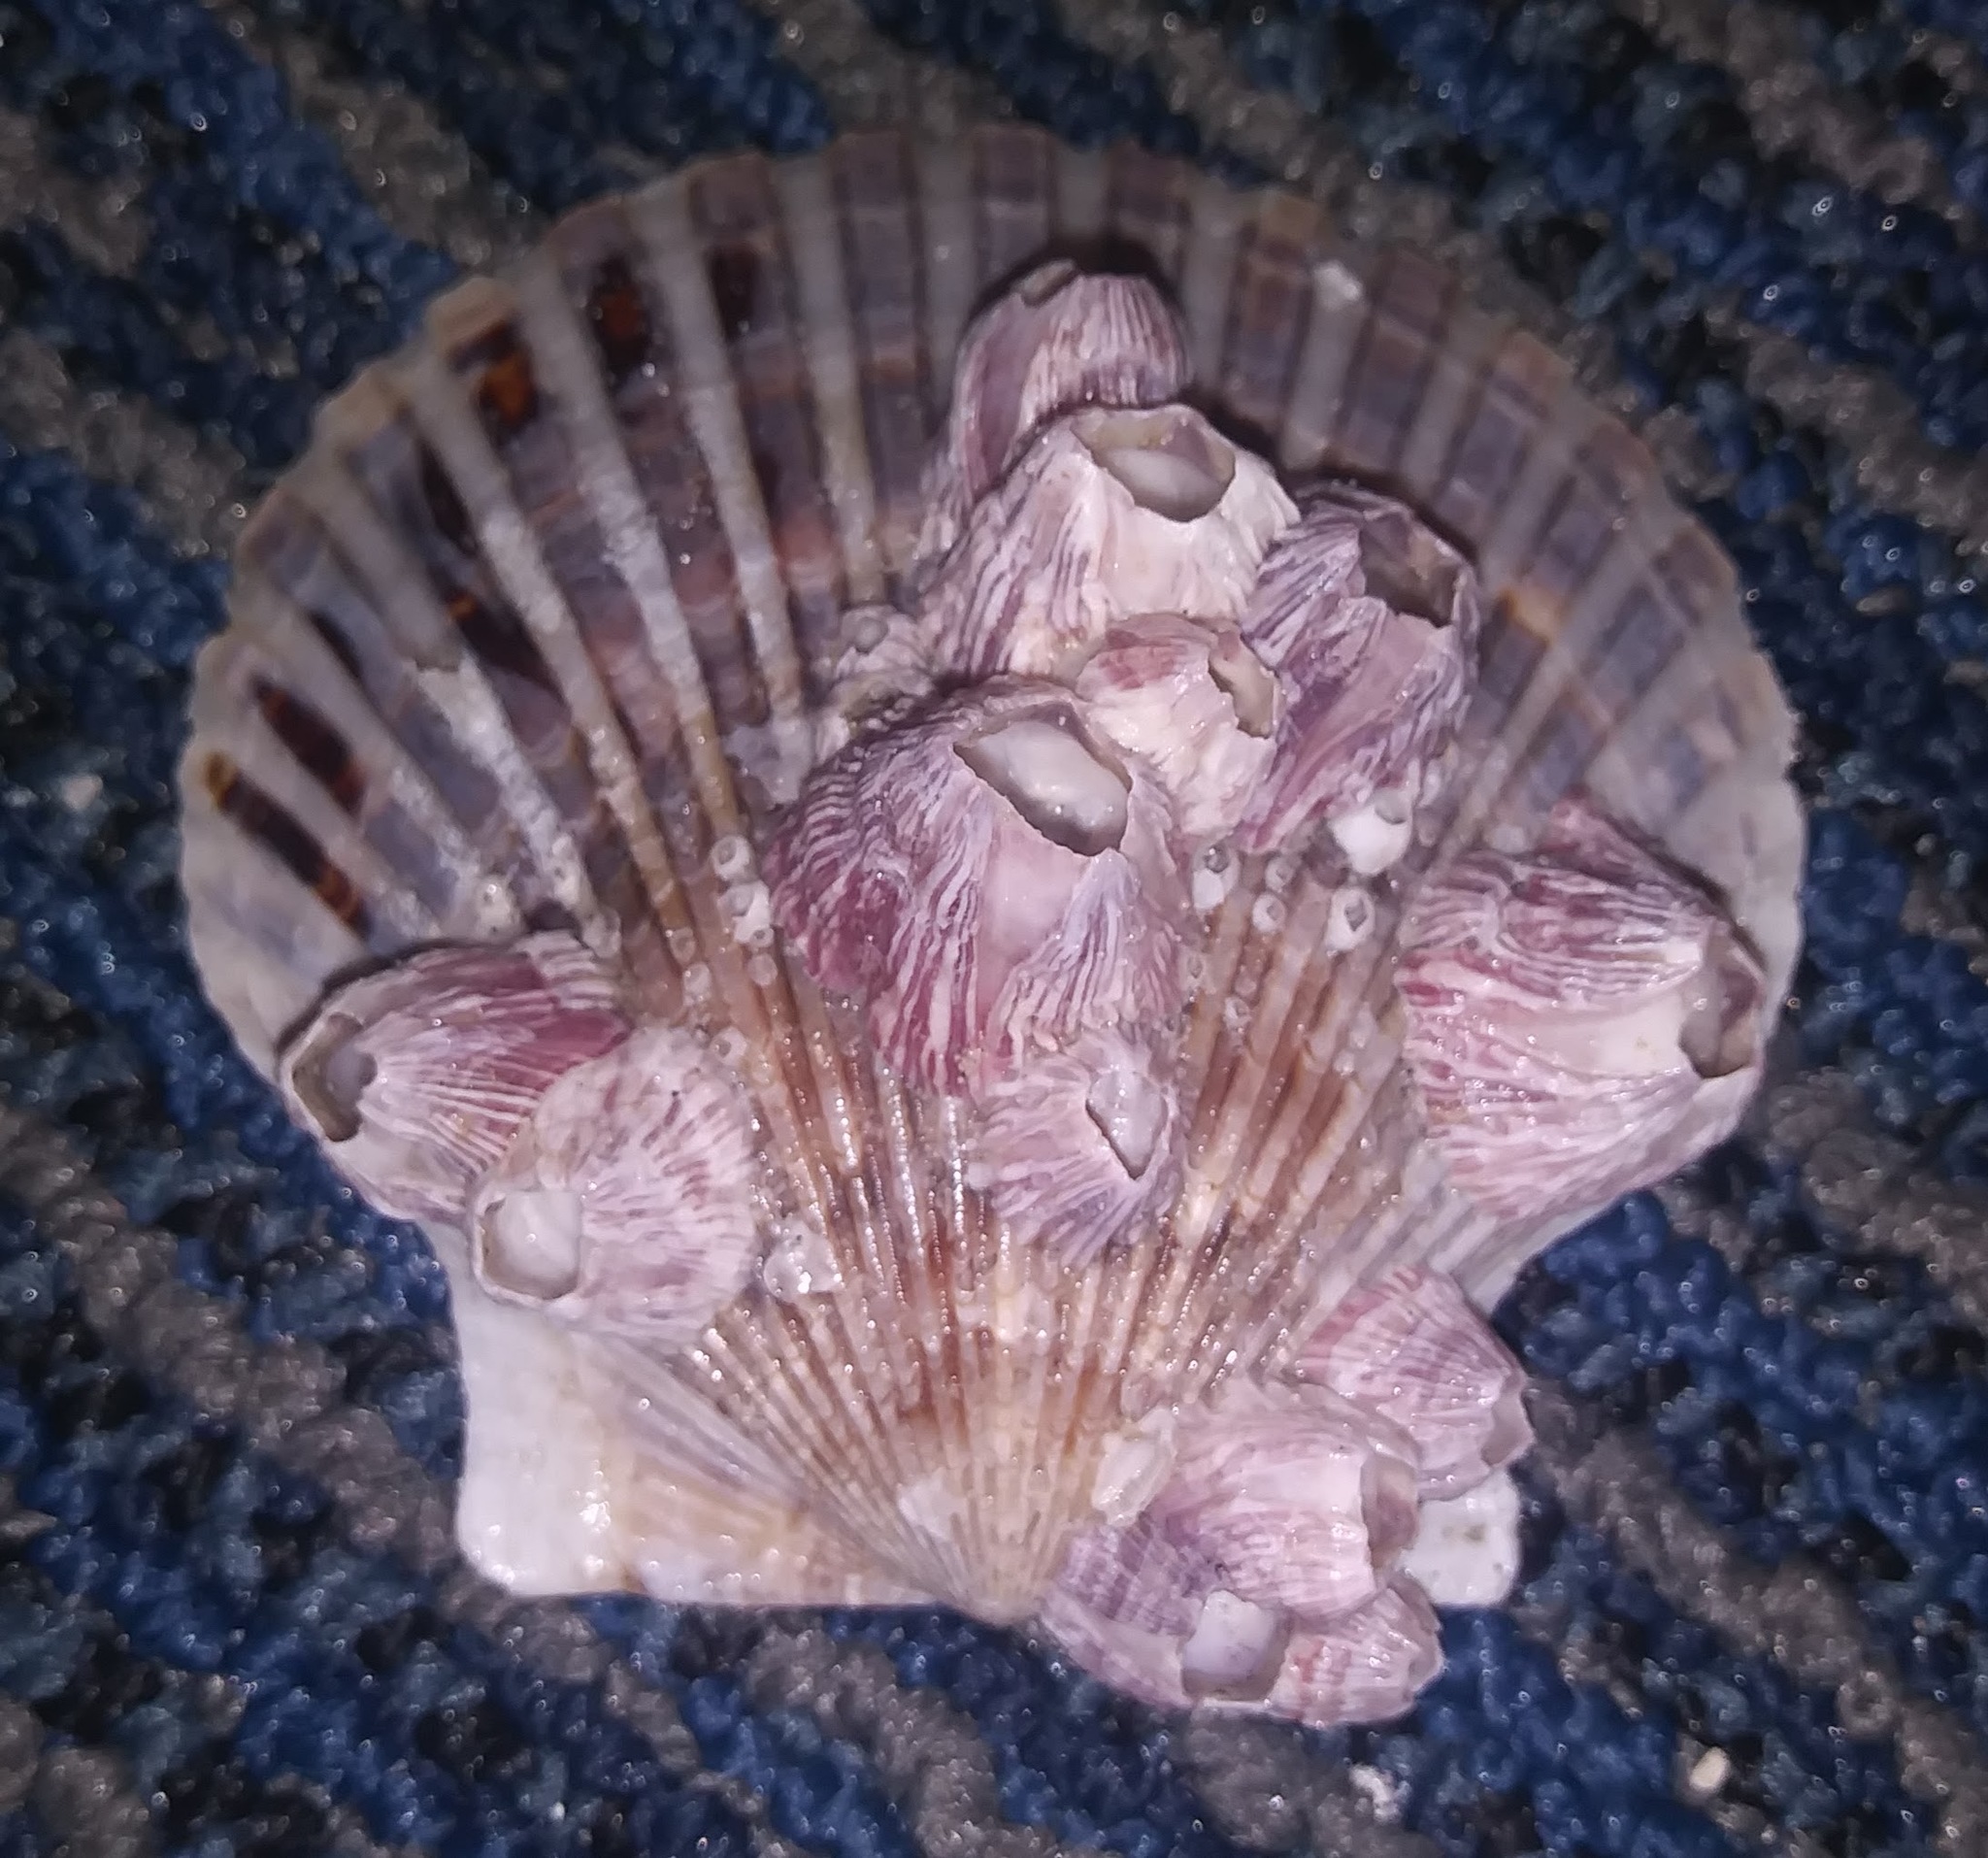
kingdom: Animalia
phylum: Arthropoda
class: Maxillopoda
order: Sessilia
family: Balanidae
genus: Balanus
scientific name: Balanus trigonus
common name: Triangle barnacle
